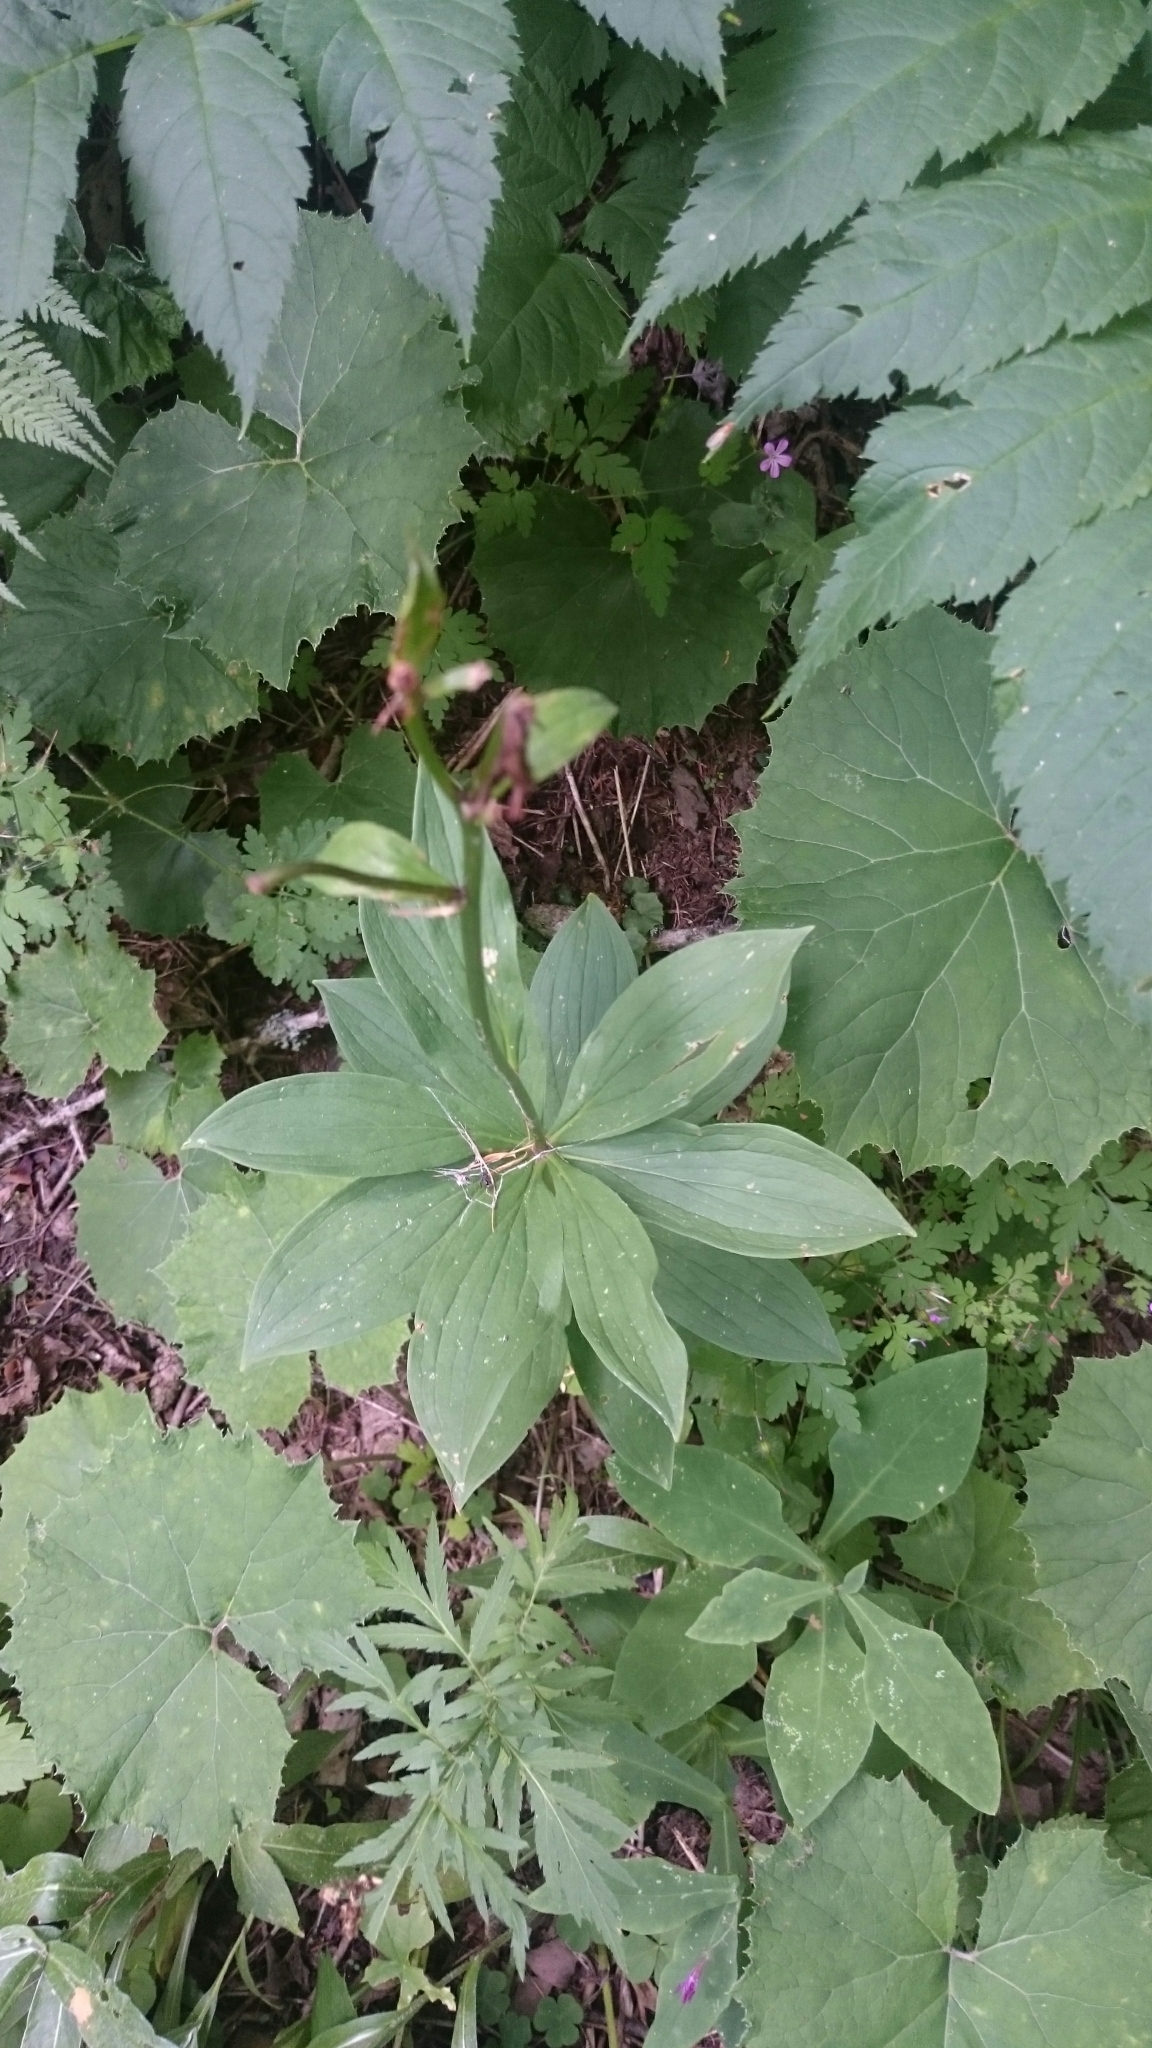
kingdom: Plantae
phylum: Tracheophyta
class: Liliopsida
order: Liliales
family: Liliaceae
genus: Lilium
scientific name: Lilium martagon
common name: Martagon lily
